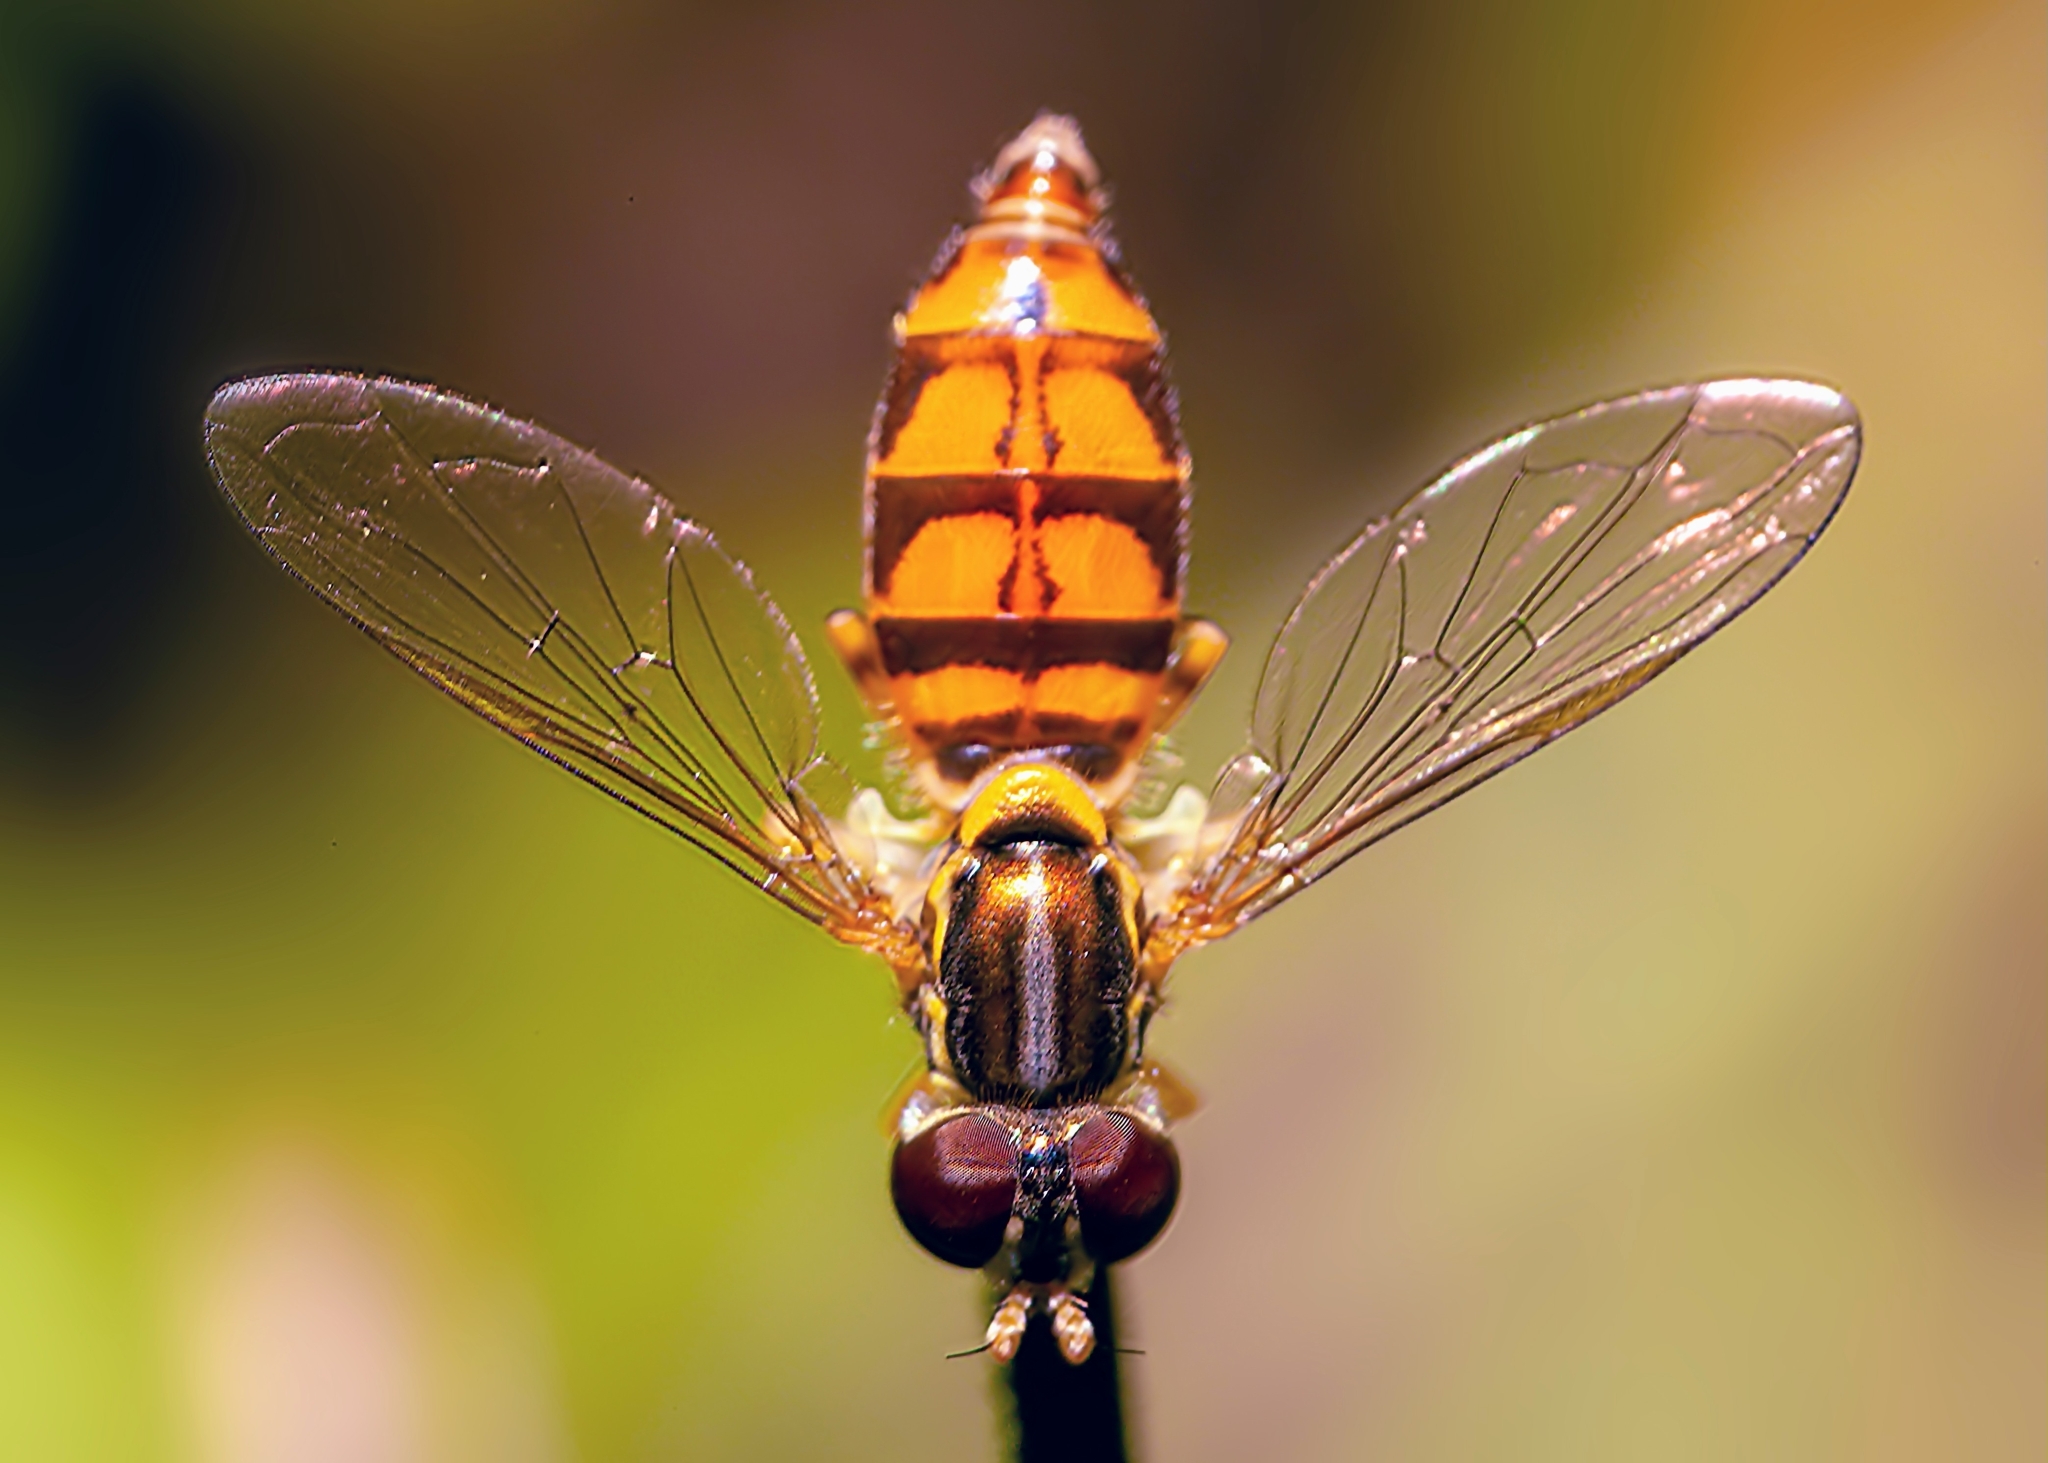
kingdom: Animalia
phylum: Arthropoda
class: Insecta
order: Diptera
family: Syrphidae
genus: Toxomerus
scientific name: Toxomerus floralis
